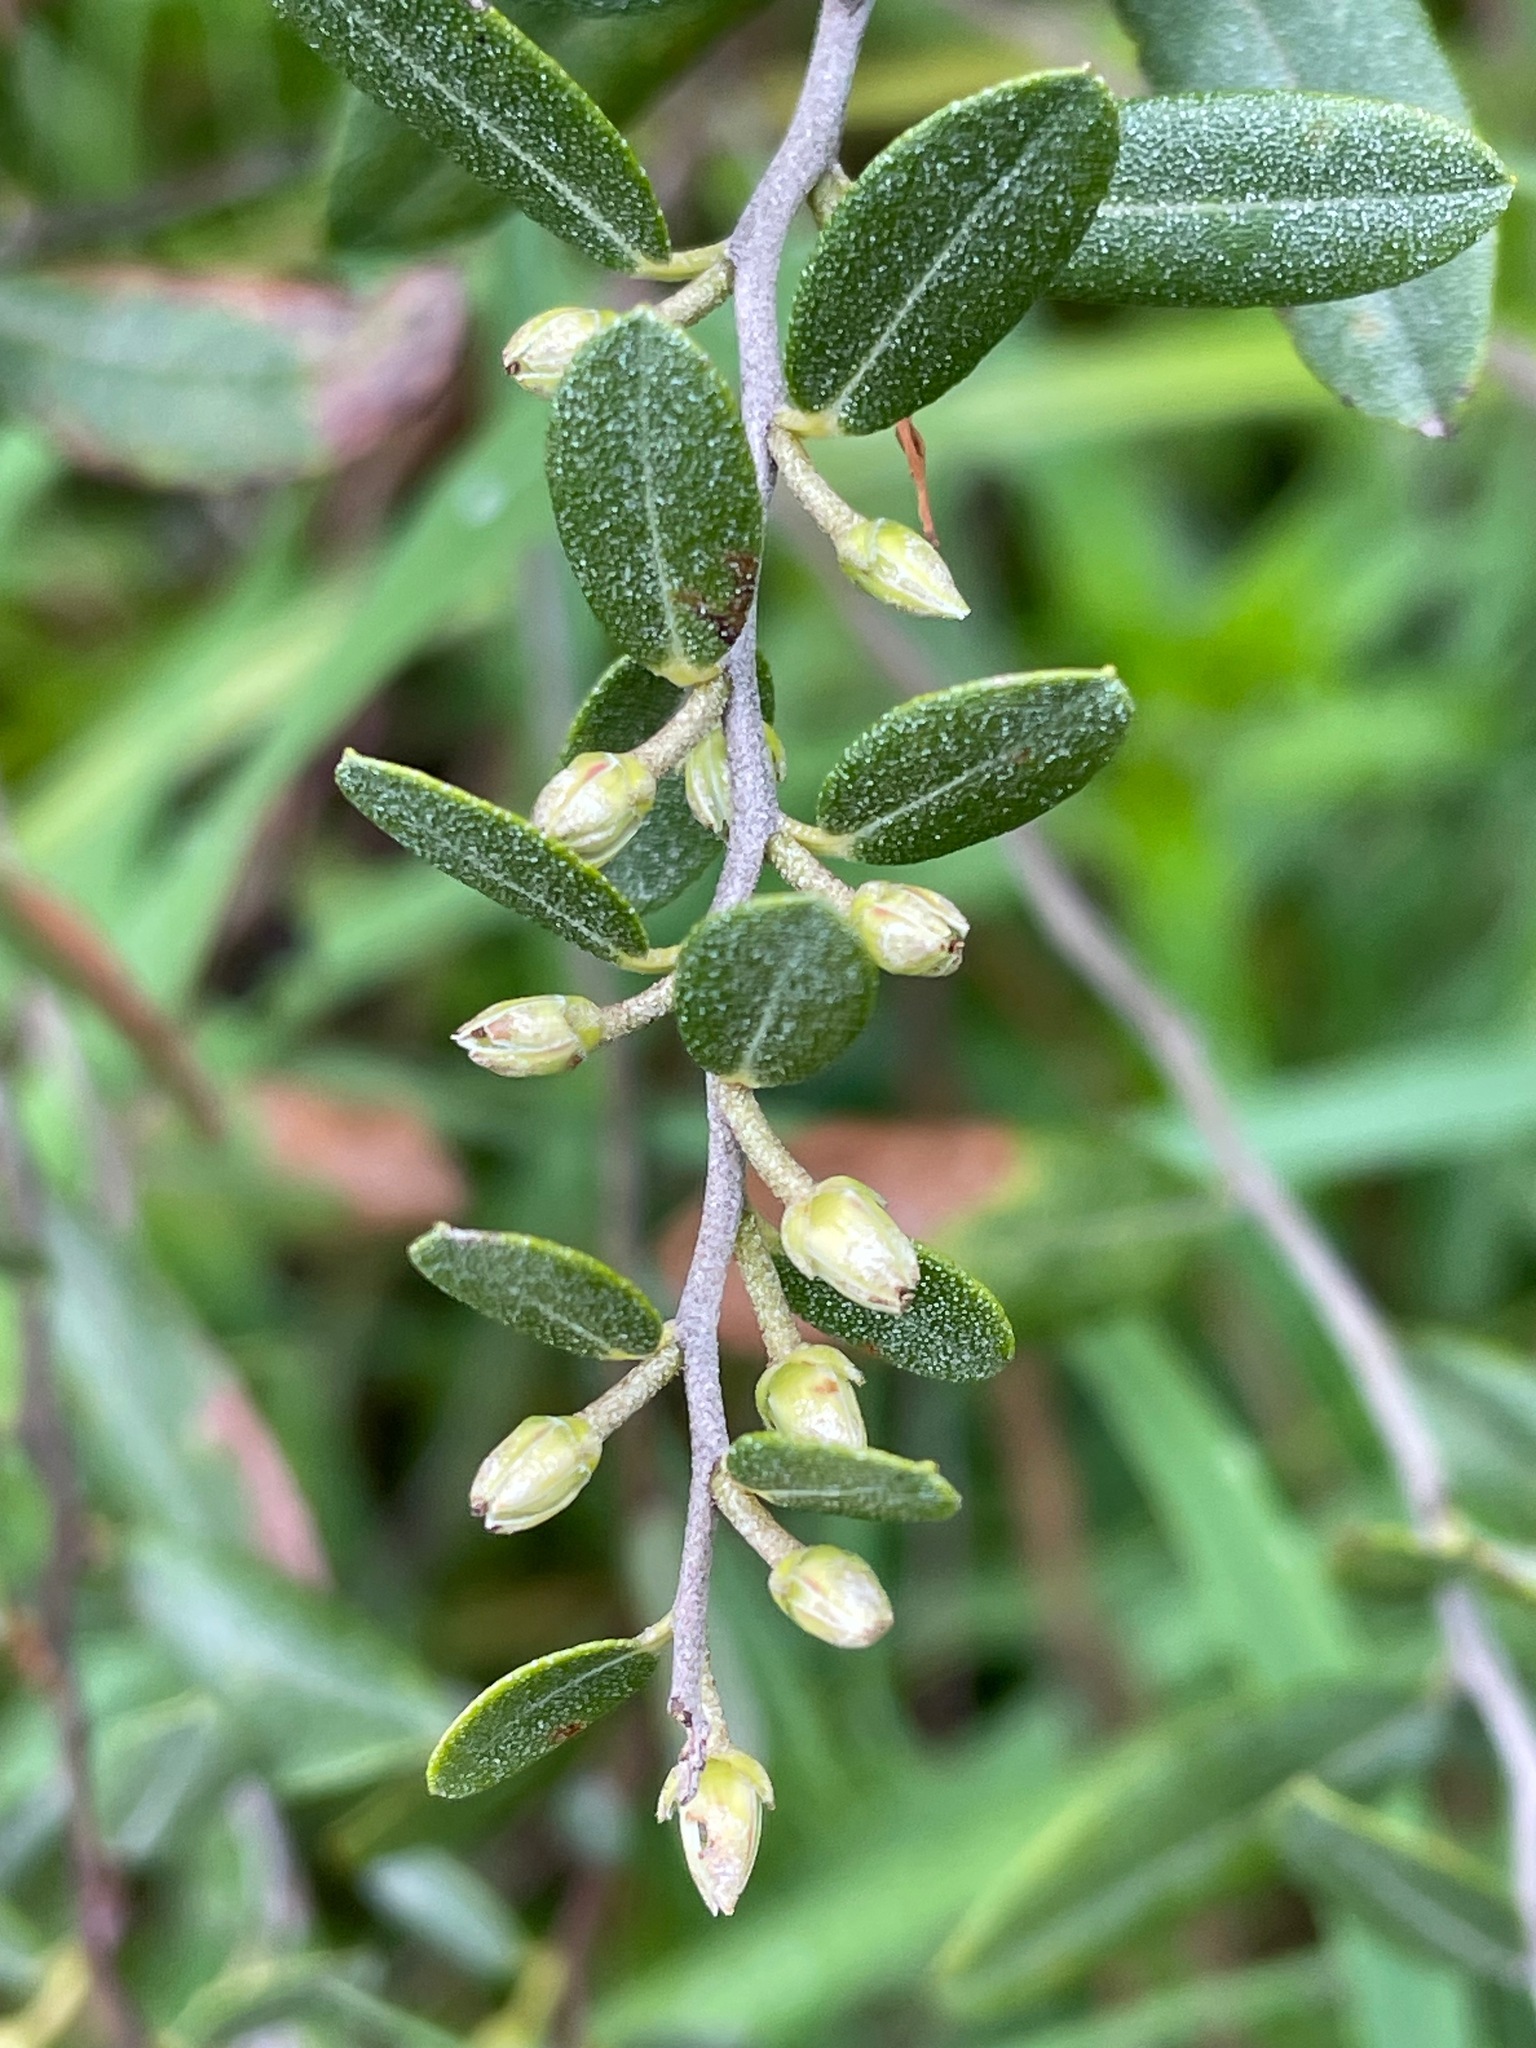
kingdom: Plantae
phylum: Tracheophyta
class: Magnoliopsida
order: Ericales
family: Ericaceae
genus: Chamaedaphne
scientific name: Chamaedaphne calyculata
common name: Leatherleaf
